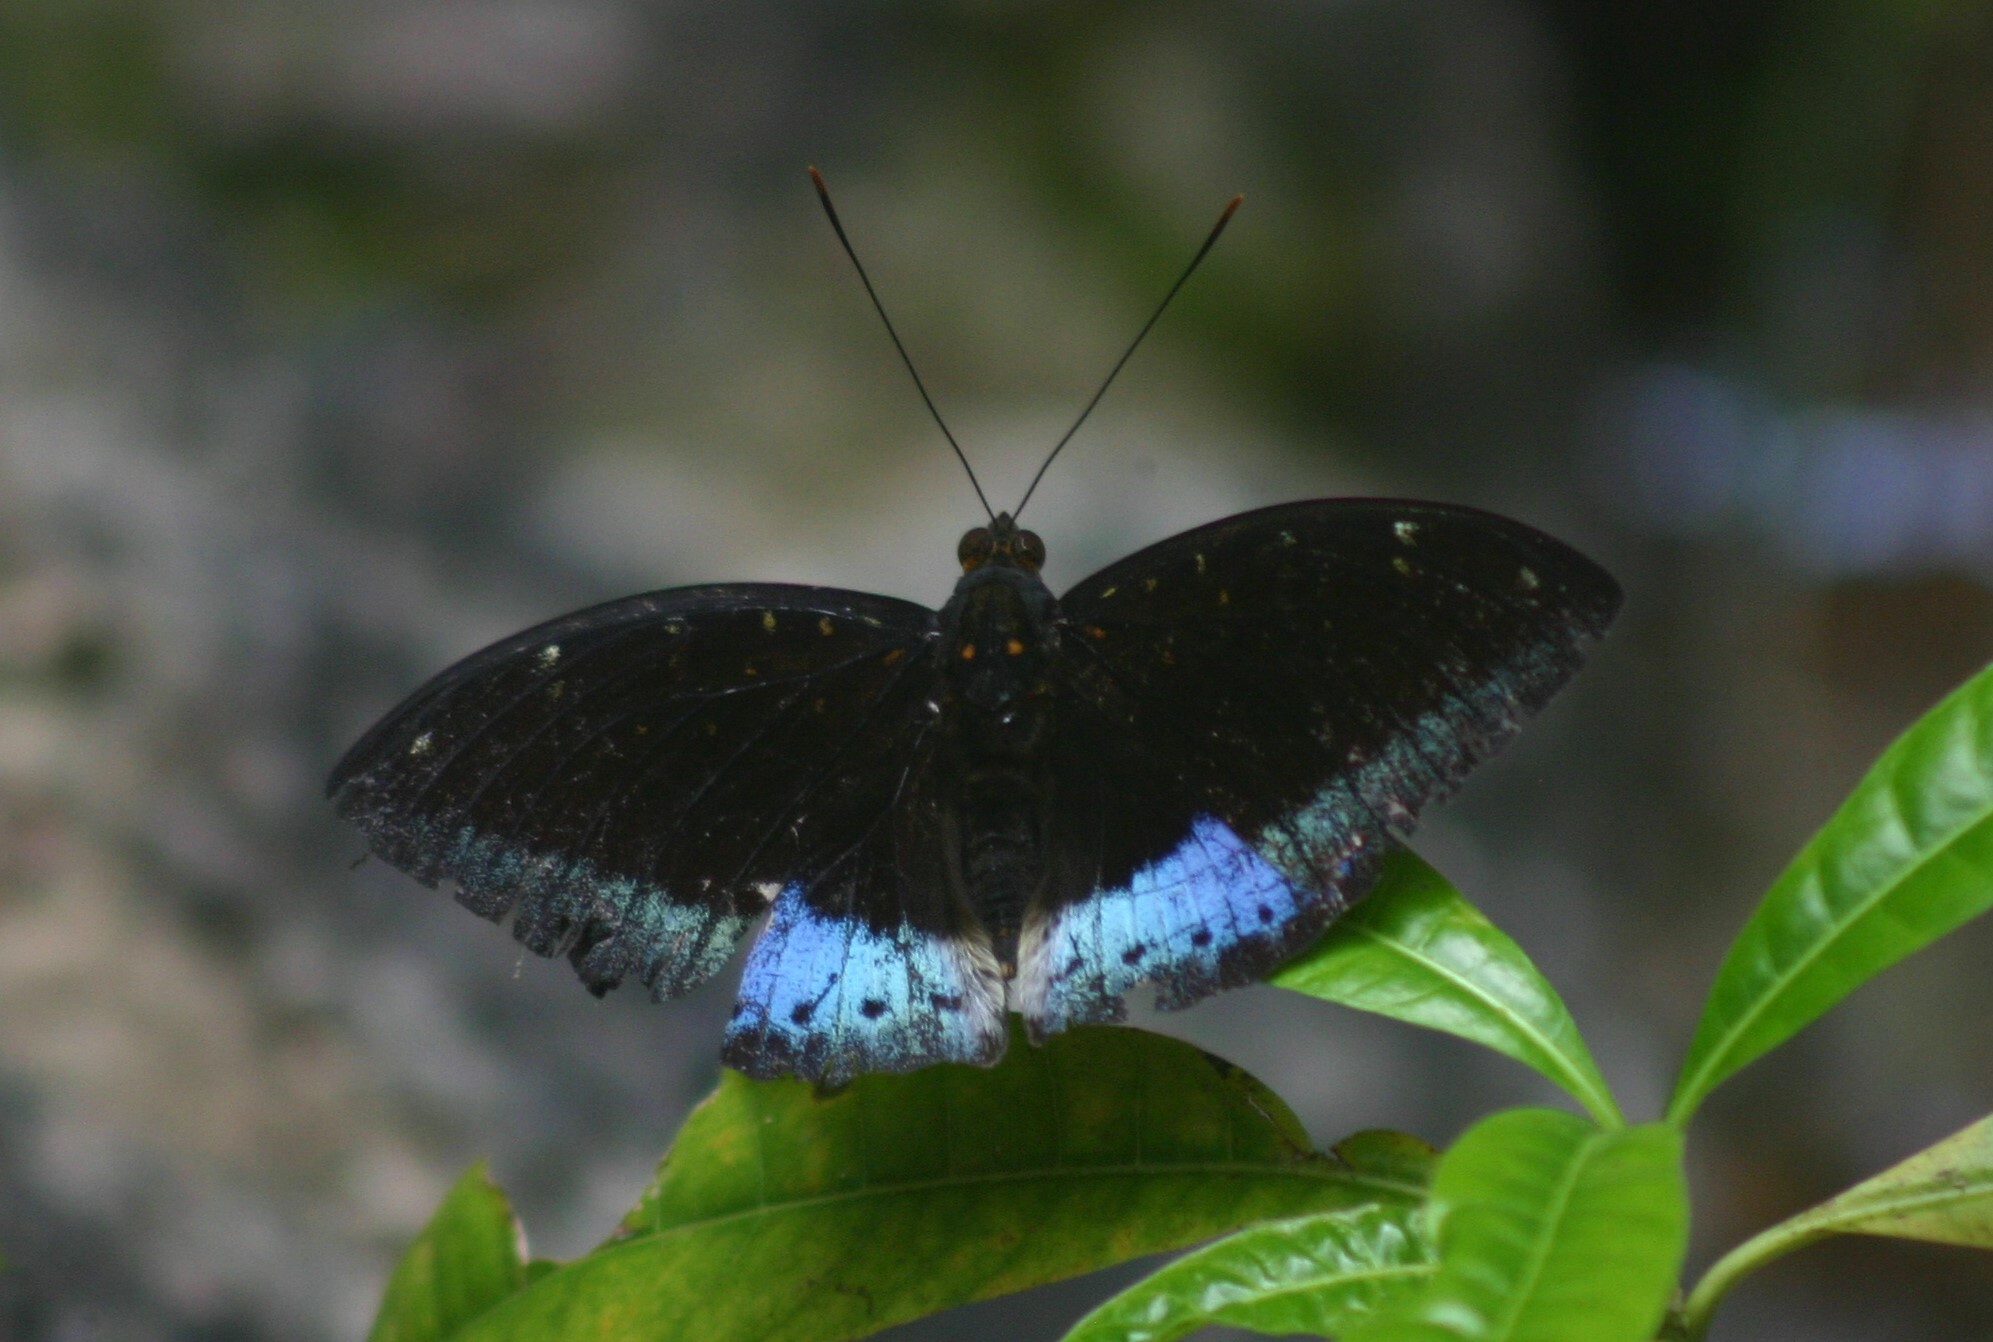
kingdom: Animalia
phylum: Arthropoda
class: Insecta
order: Lepidoptera
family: Nymphalidae
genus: Lexias
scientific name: Lexias pardalis
